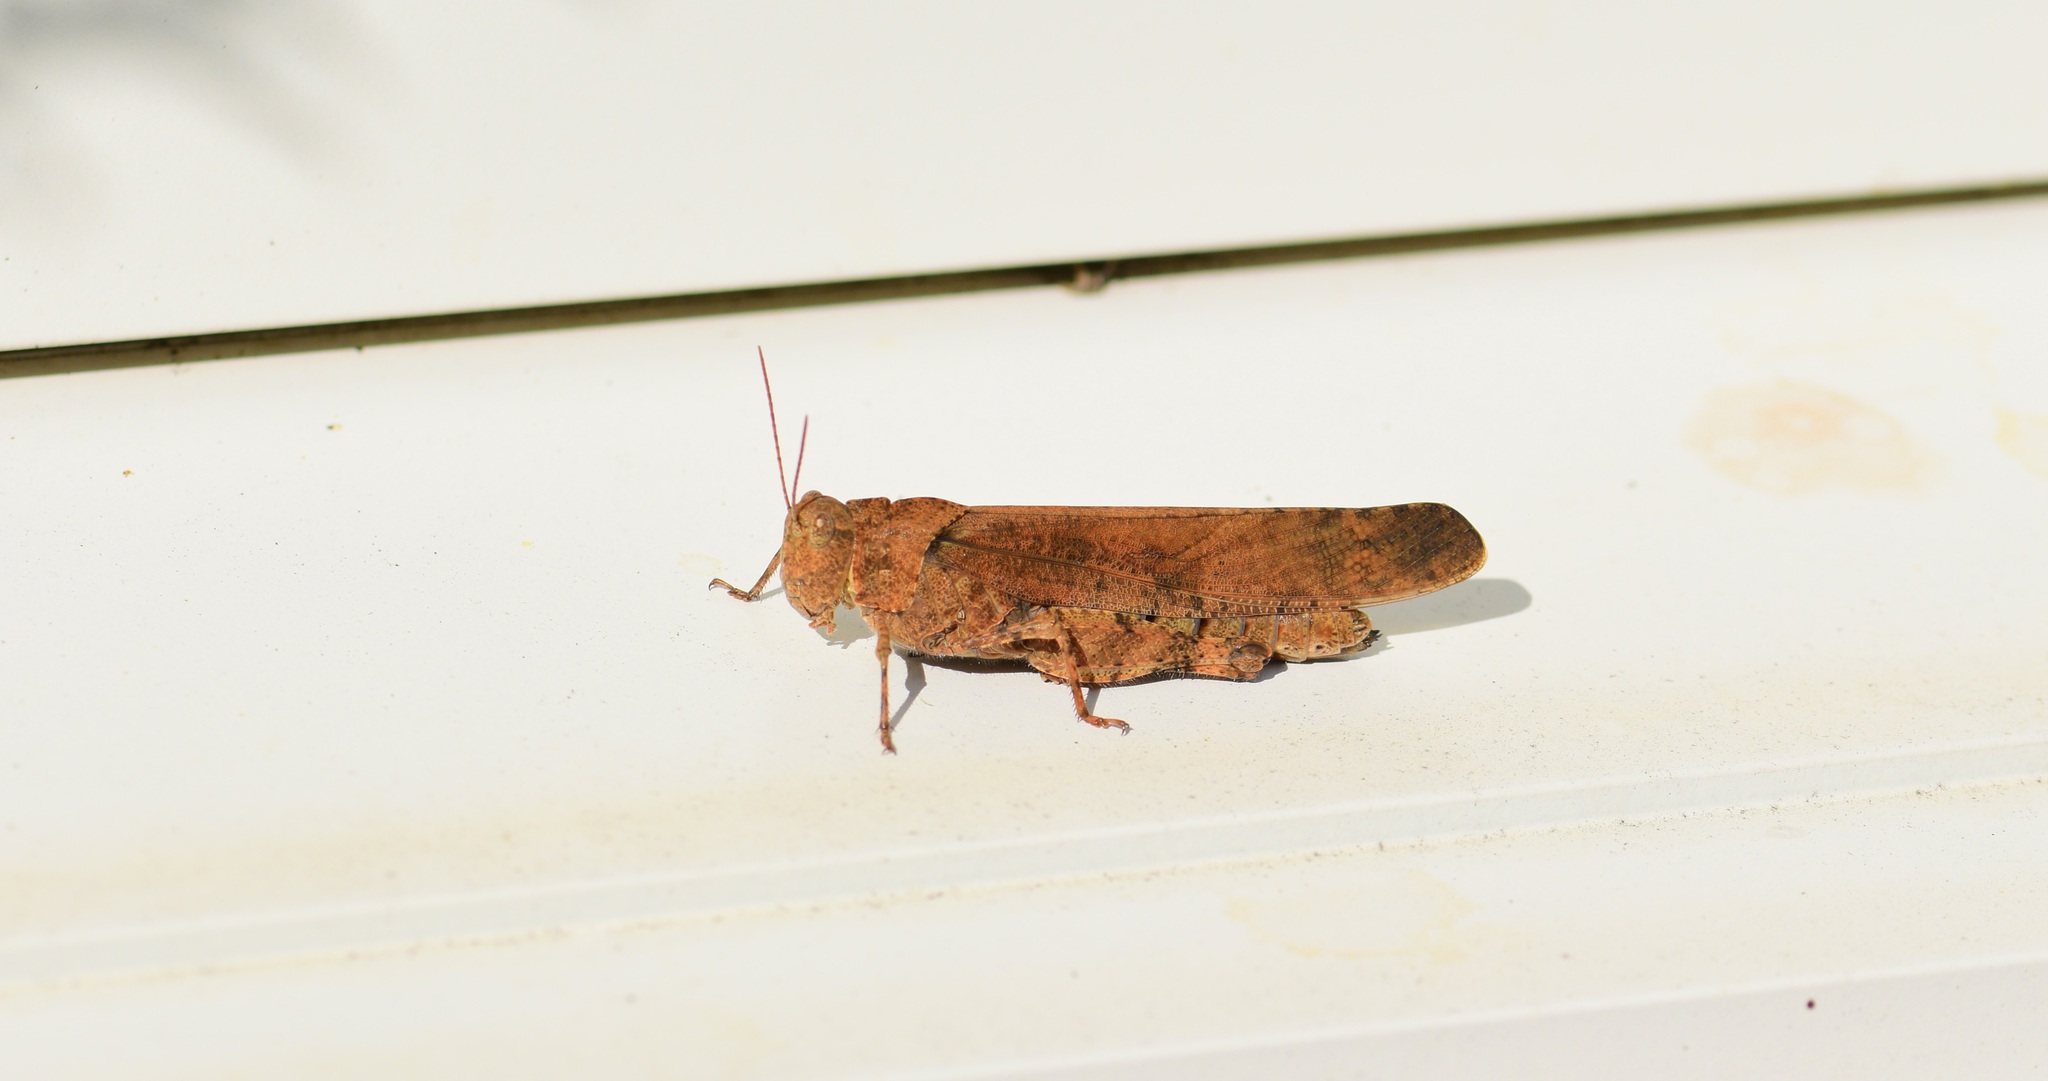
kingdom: Animalia
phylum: Arthropoda
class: Insecta
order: Orthoptera
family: Acrididae
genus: Dissosteira
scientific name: Dissosteira carolina
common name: Carolina grasshopper
